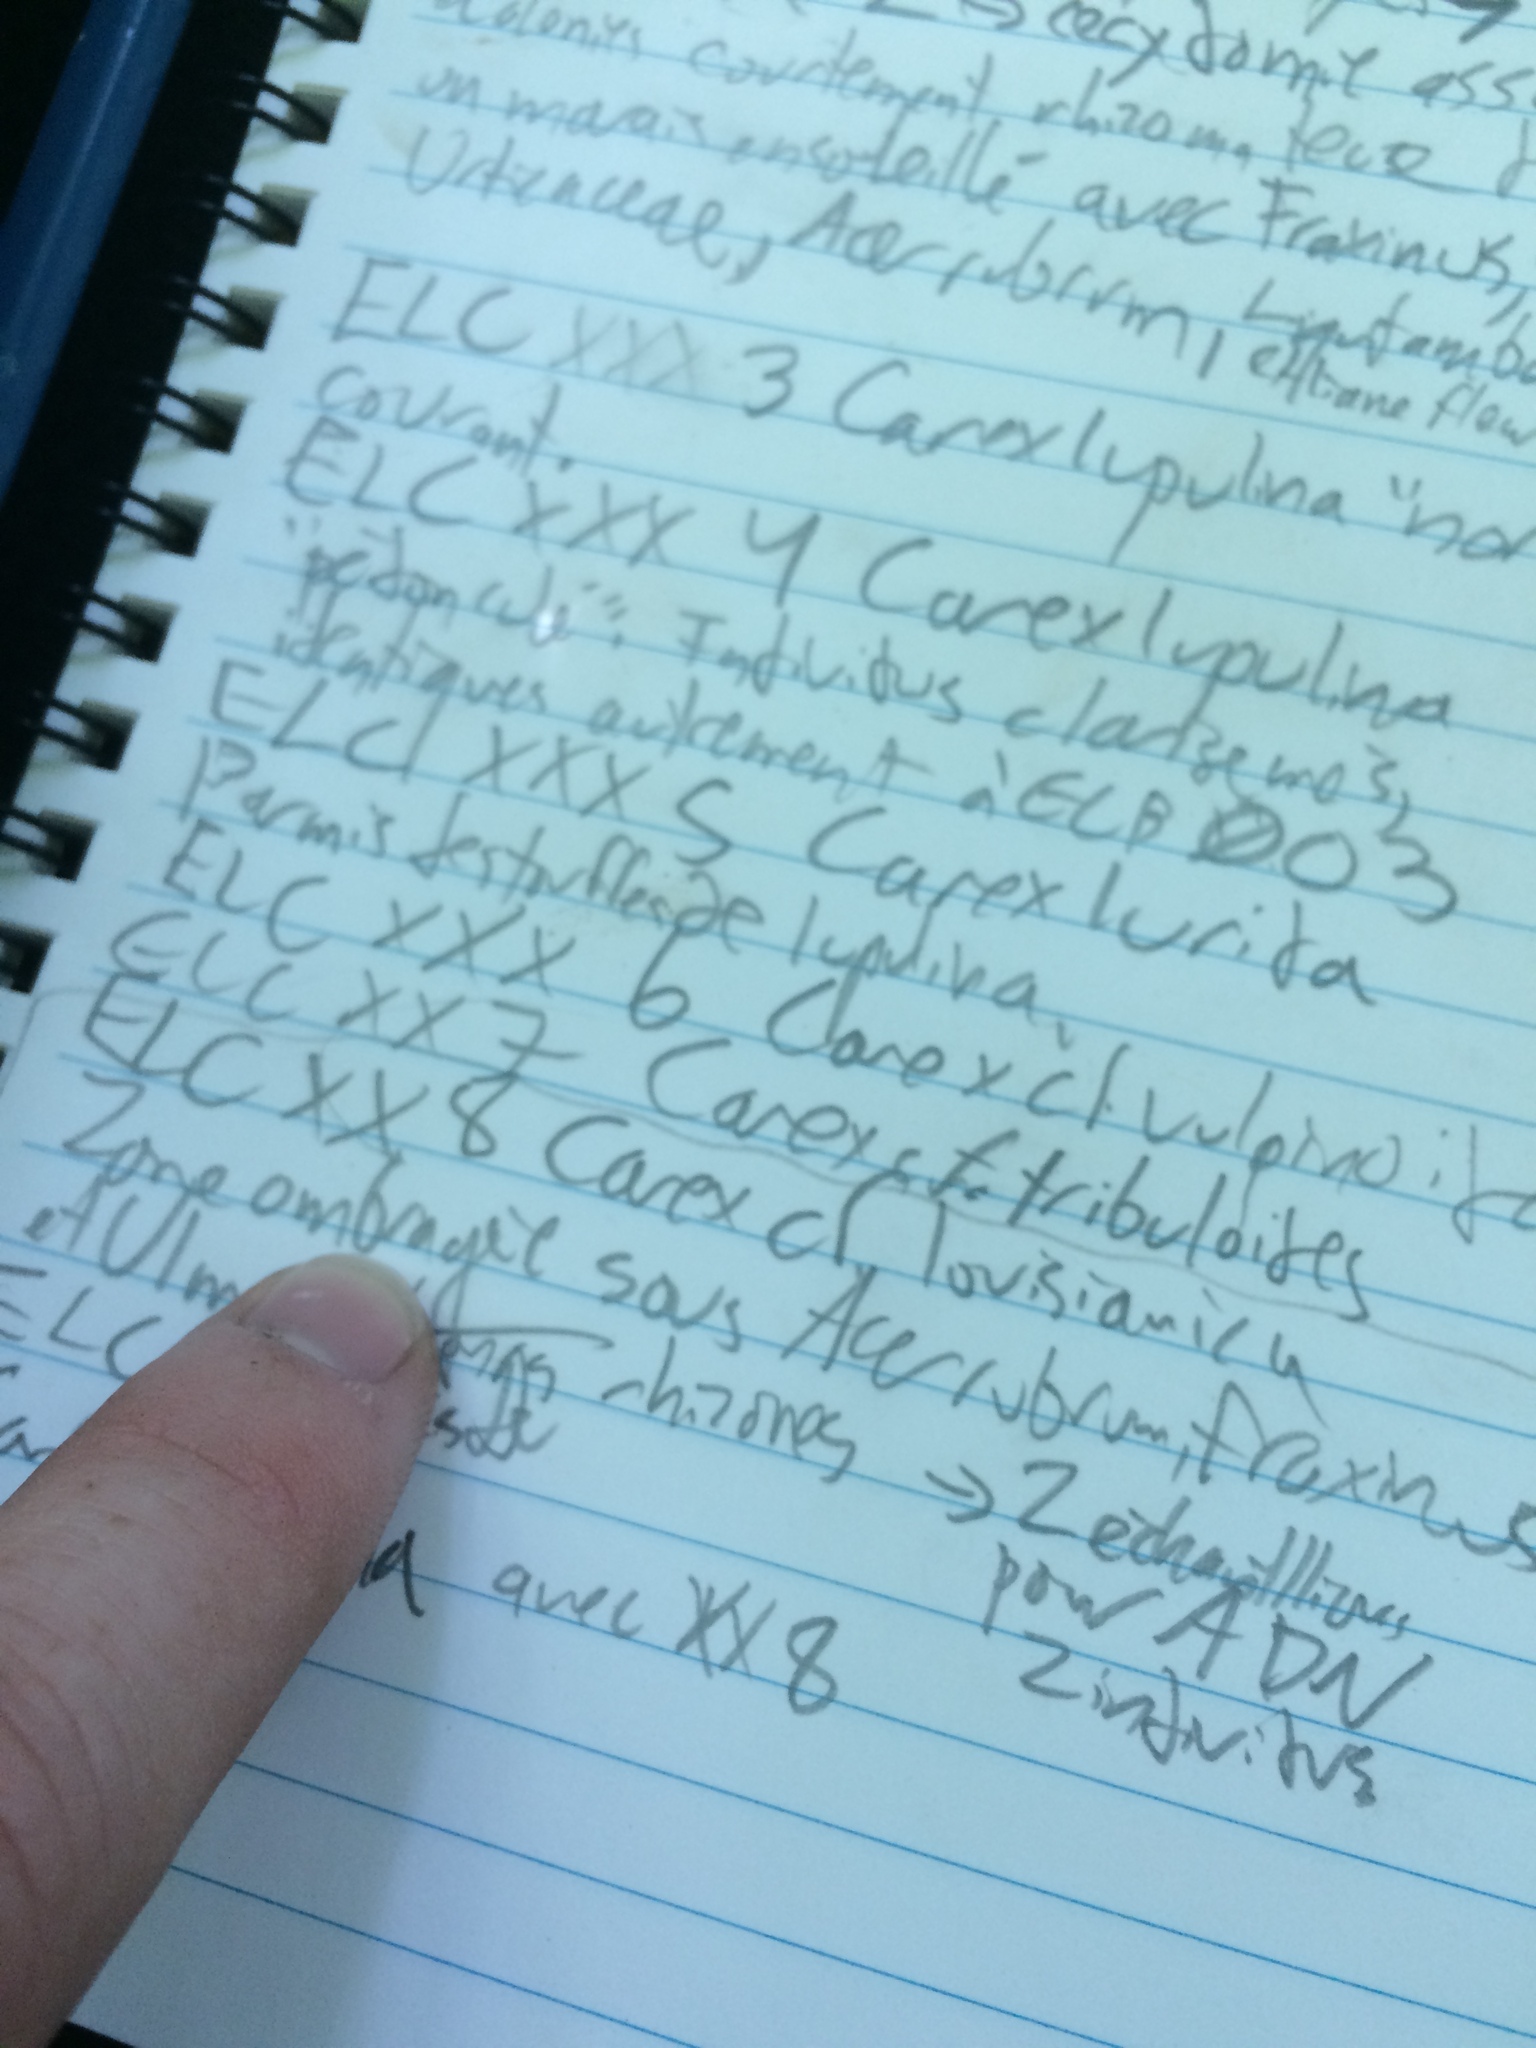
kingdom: Plantae
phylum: Tracheophyta
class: Liliopsida
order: Poales
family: Cyperaceae
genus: Carex
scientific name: Carex louisianica
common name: Louisiana sedge
